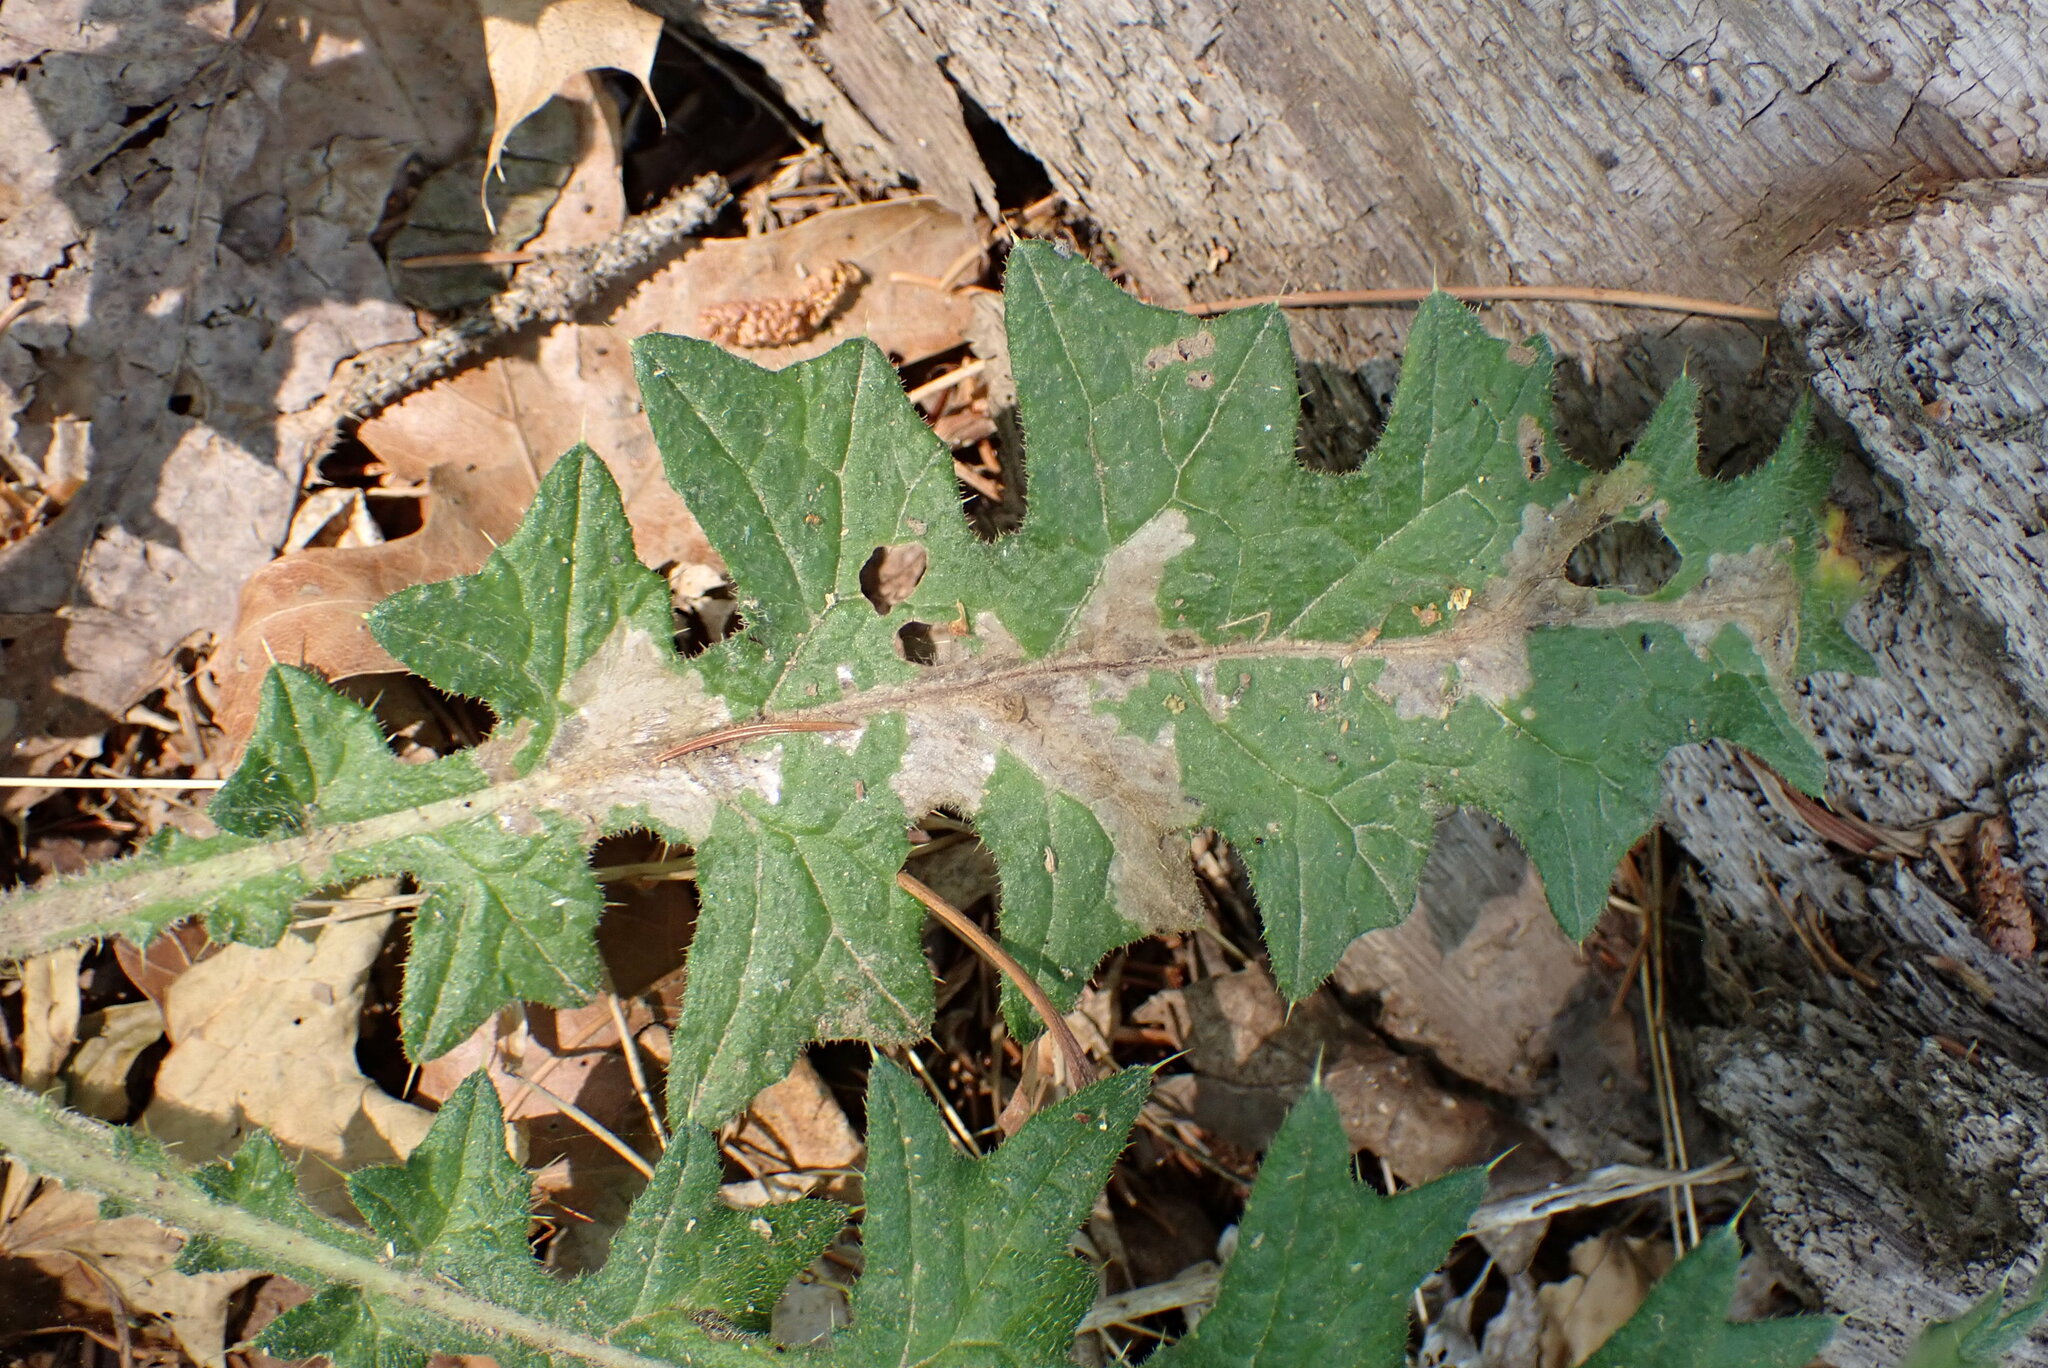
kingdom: Animalia
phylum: Arthropoda
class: Insecta
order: Lepidoptera
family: Gelechiidae
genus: Scrobipalpa
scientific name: Scrobipalpa acuminatella
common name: Pointed groundling
